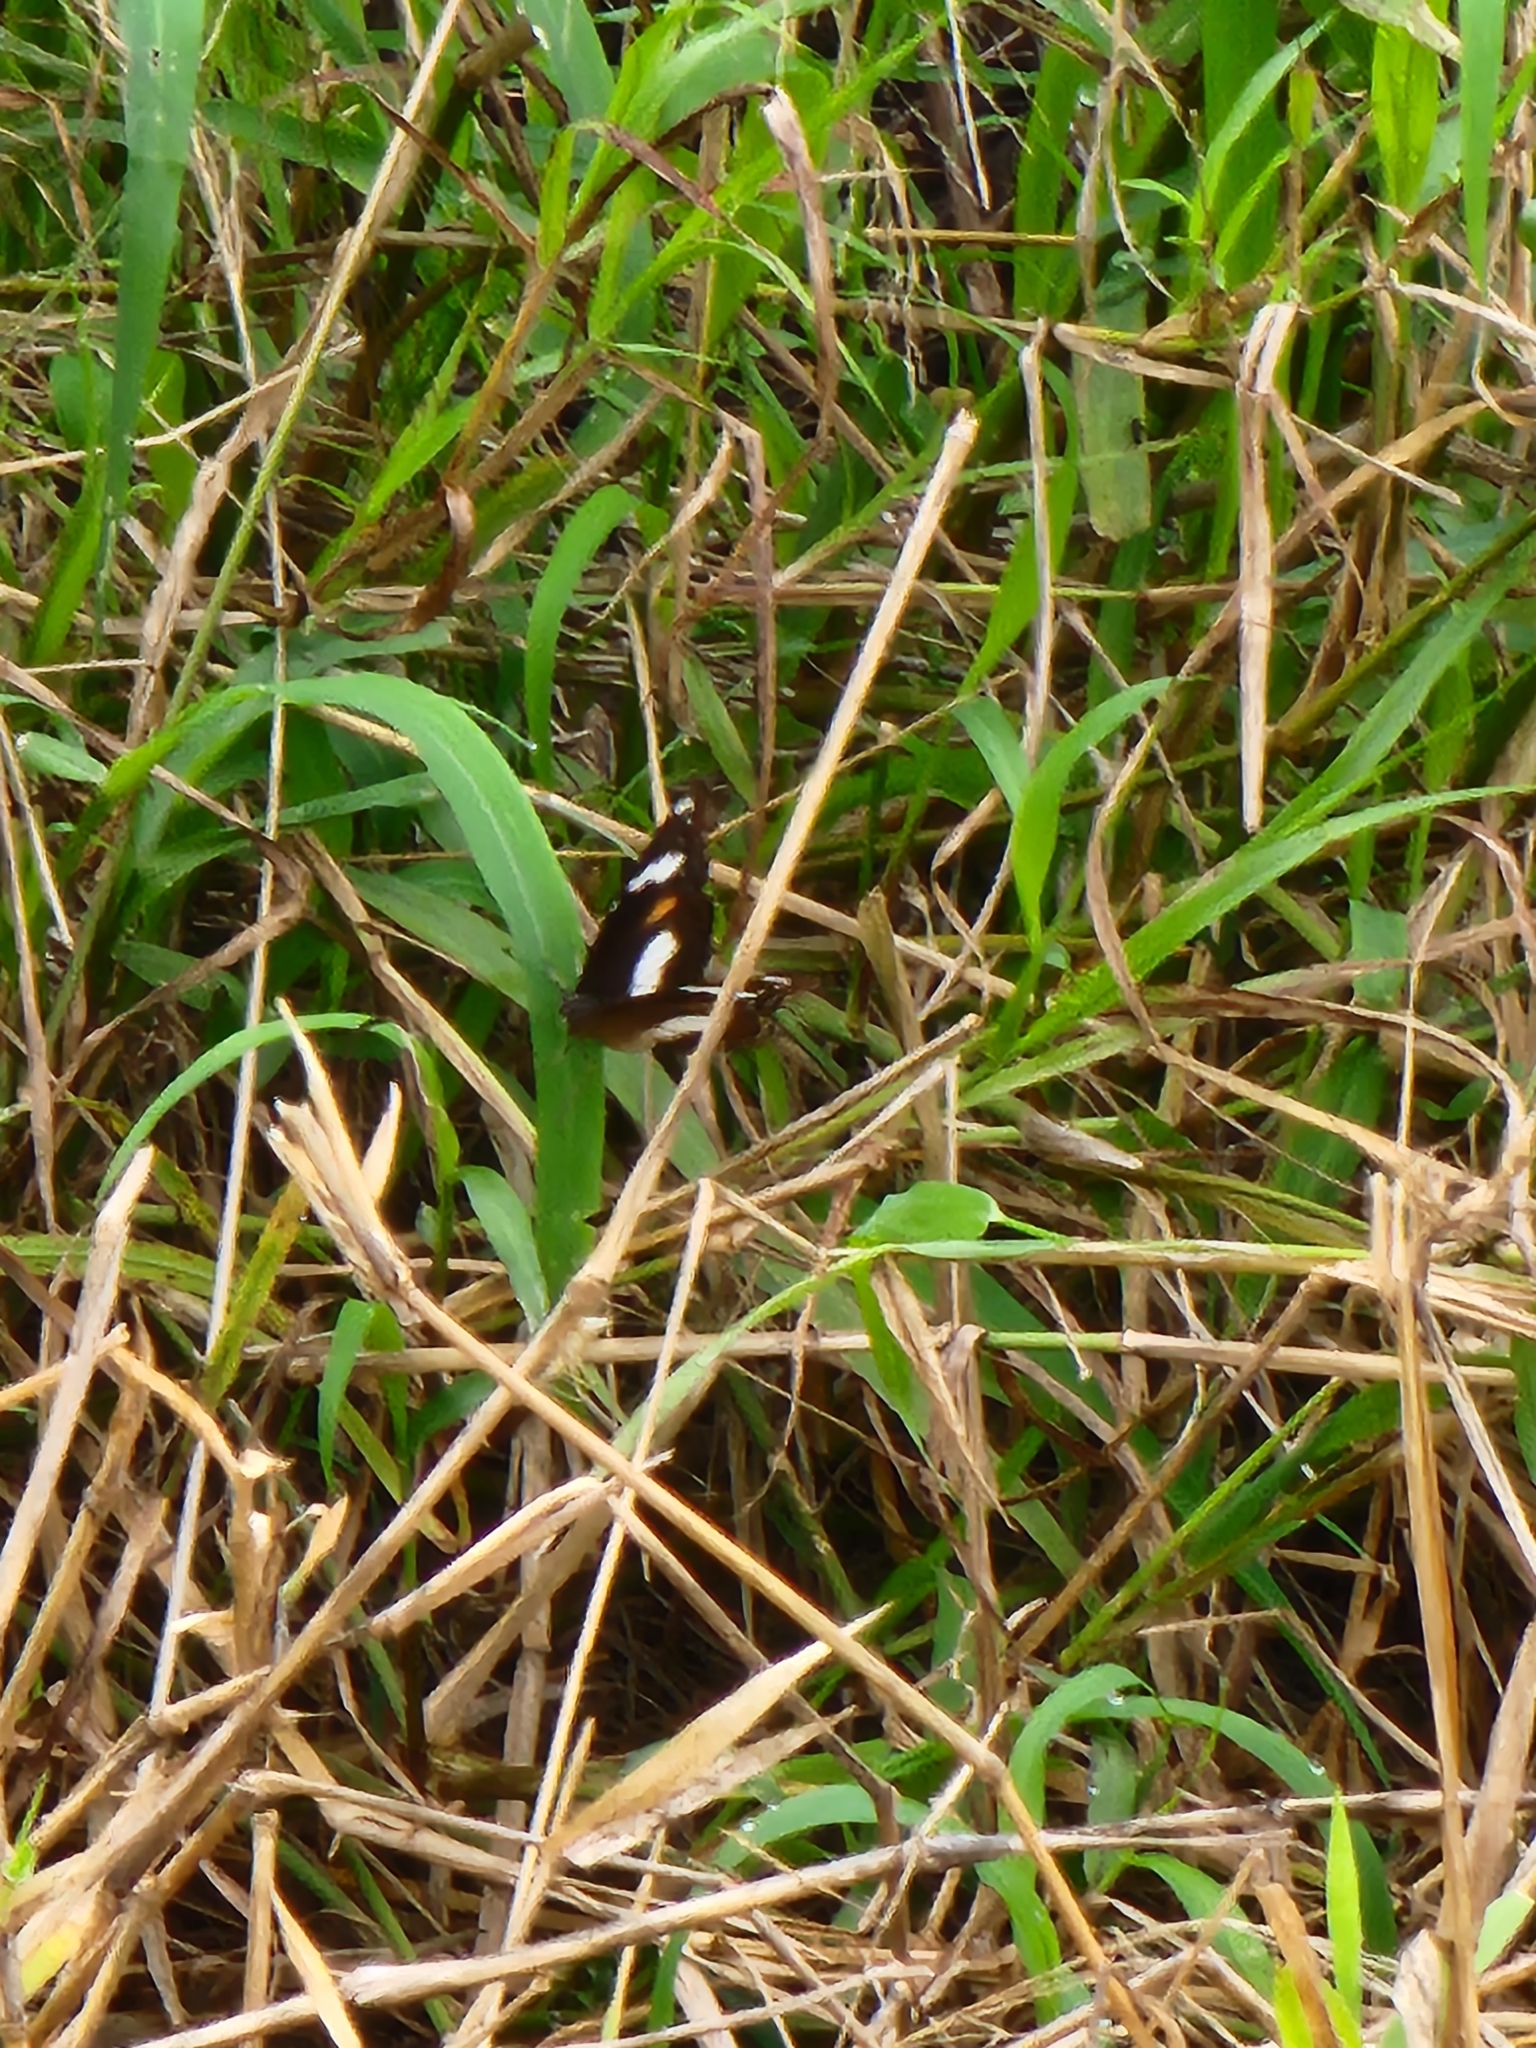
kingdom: Animalia
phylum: Arthropoda
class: Insecta
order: Lepidoptera
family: Nymphalidae
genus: Hypolimnas
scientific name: Hypolimnas bolina
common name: Great eggfly
